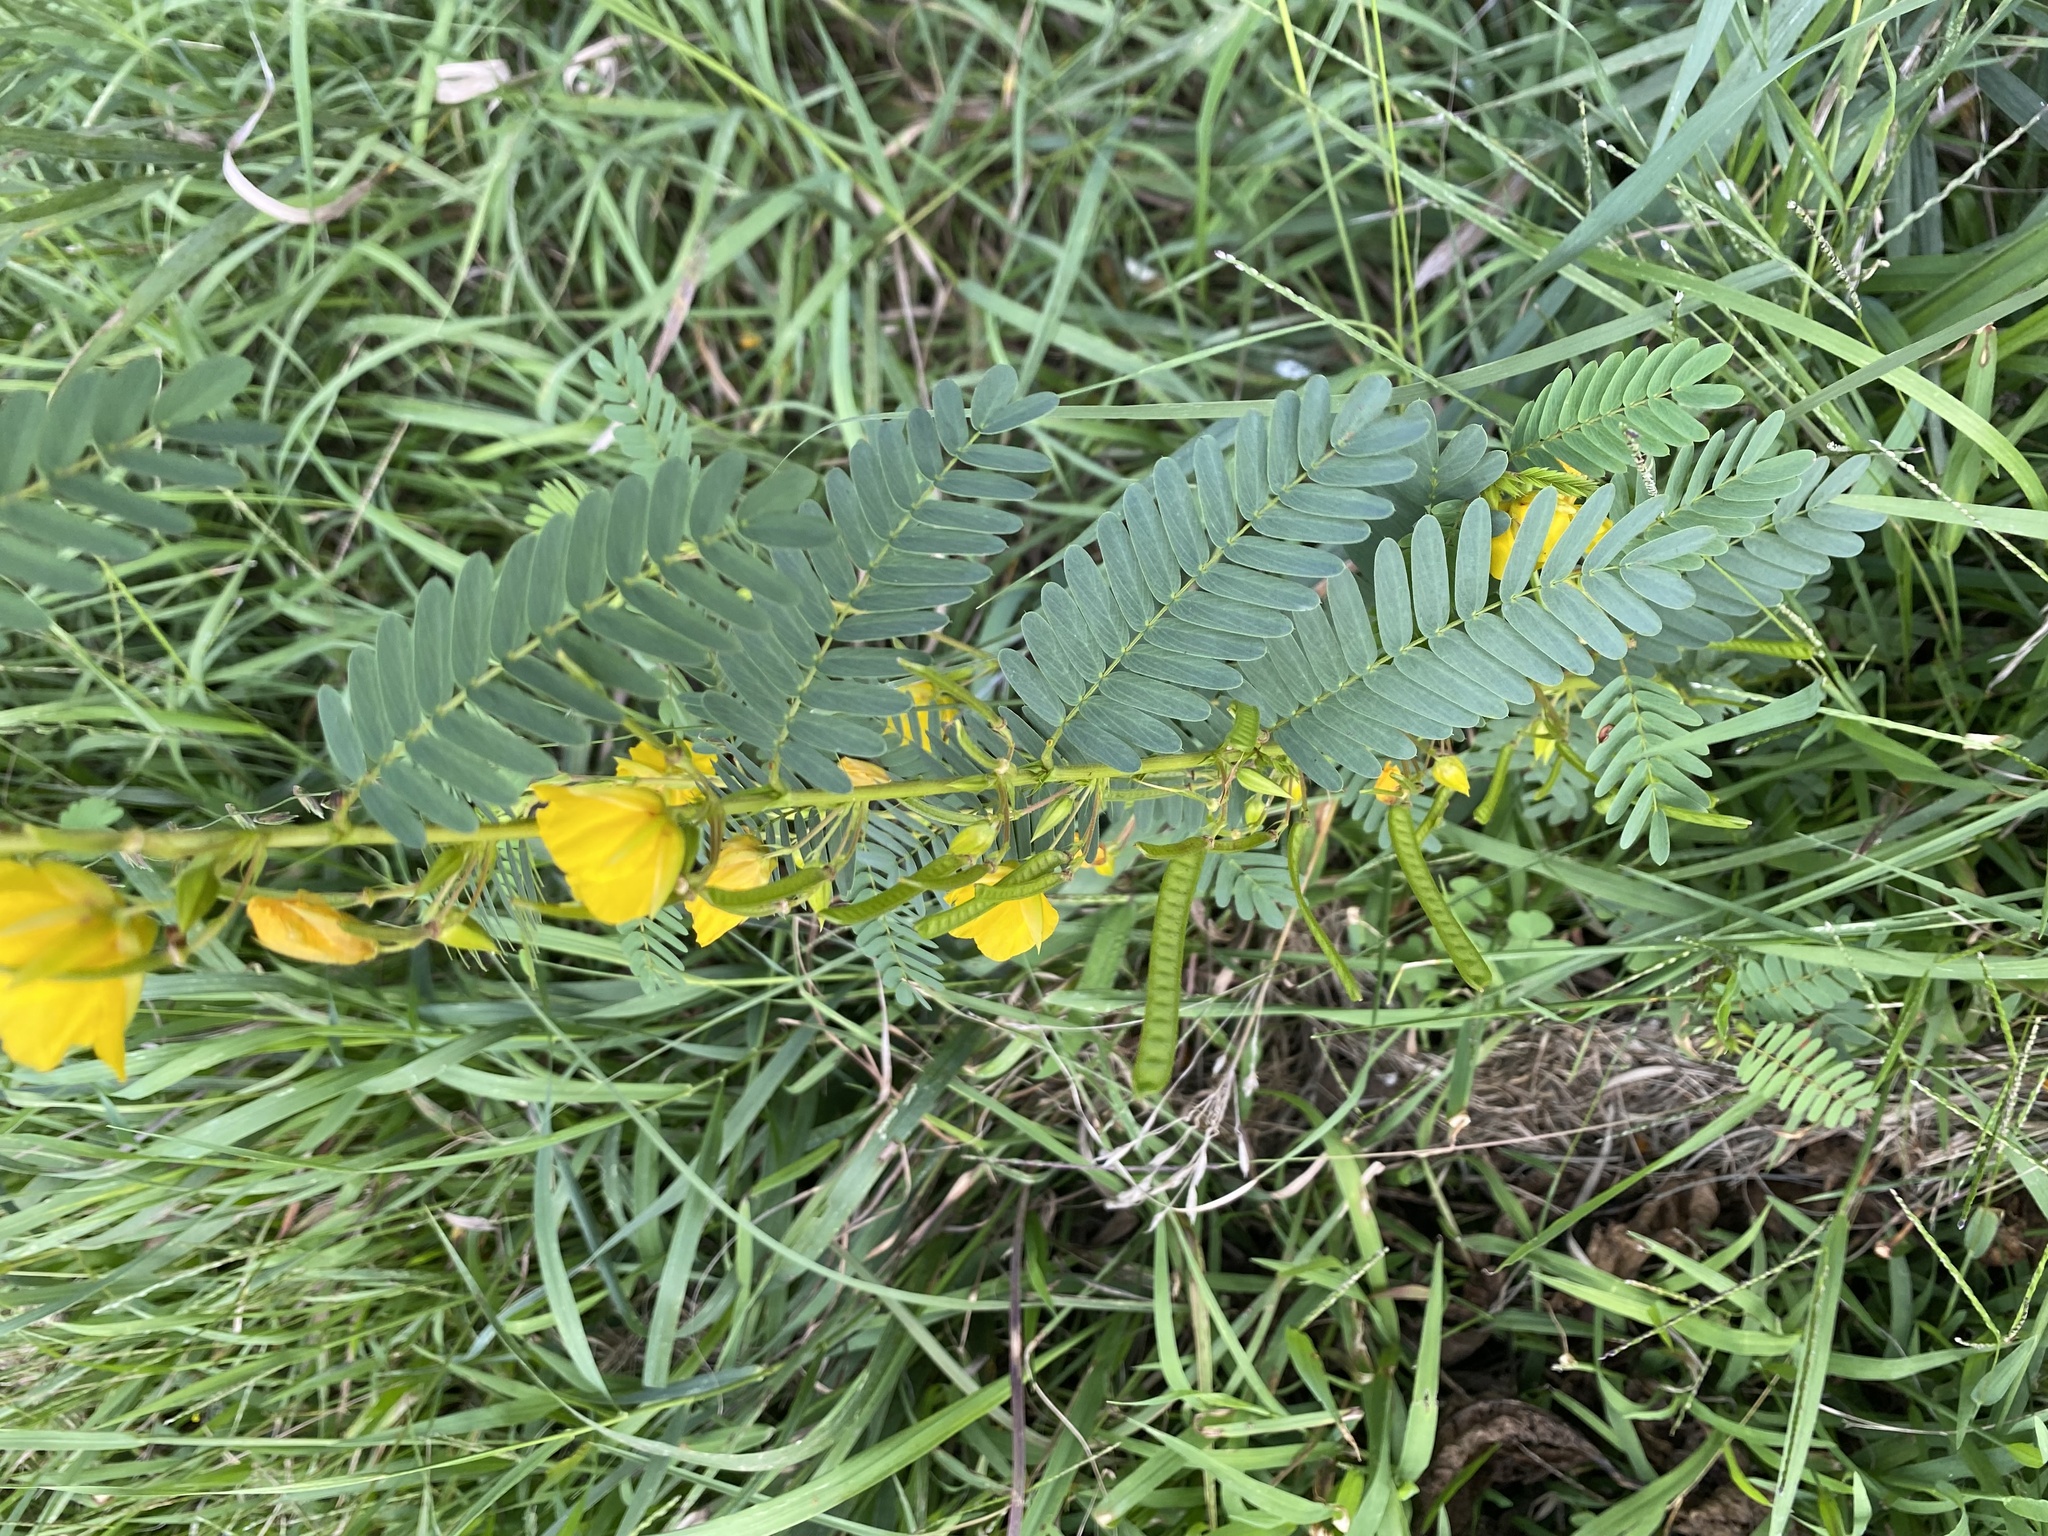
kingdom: Plantae
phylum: Tracheophyta
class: Magnoliopsida
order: Fabales
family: Fabaceae
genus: Chamaecrista
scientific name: Chamaecrista fasciculata
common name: Golden cassia
